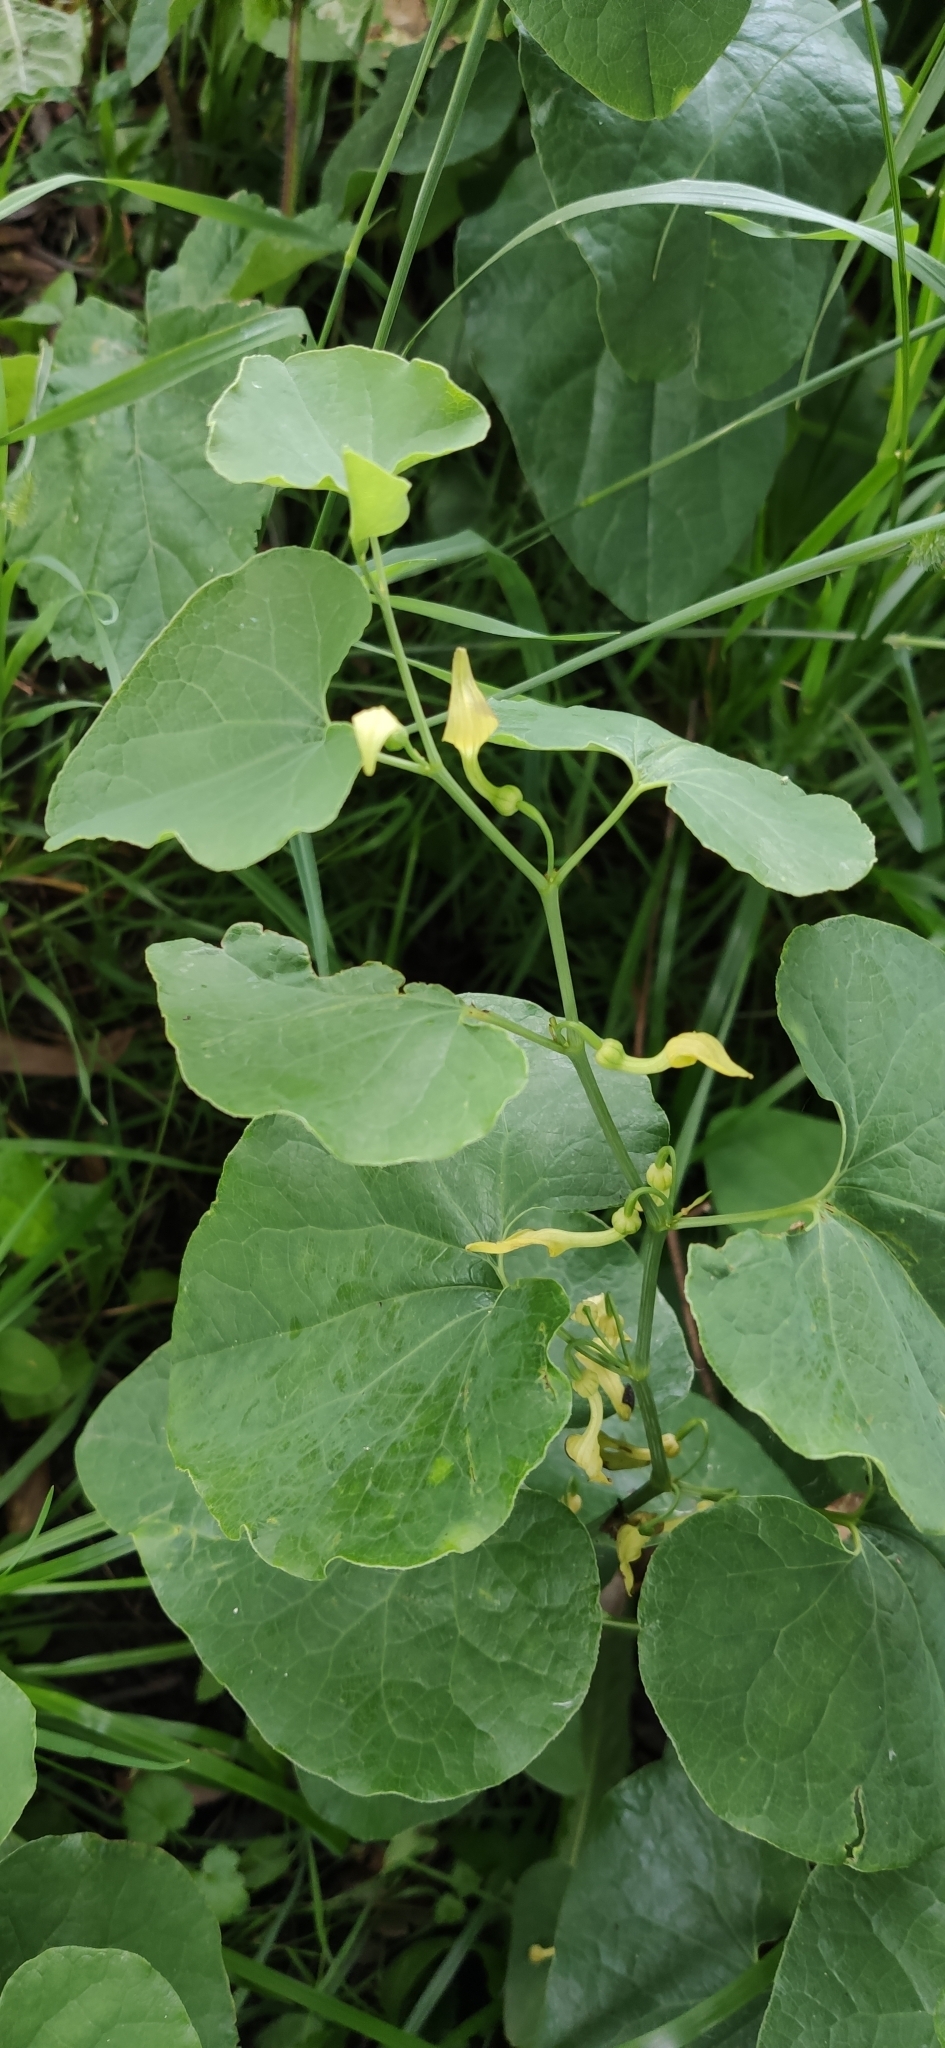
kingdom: Plantae
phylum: Tracheophyta
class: Magnoliopsida
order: Piperales
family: Aristolochiaceae
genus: Aristolochia
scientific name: Aristolochia clematitis
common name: Birthwort
